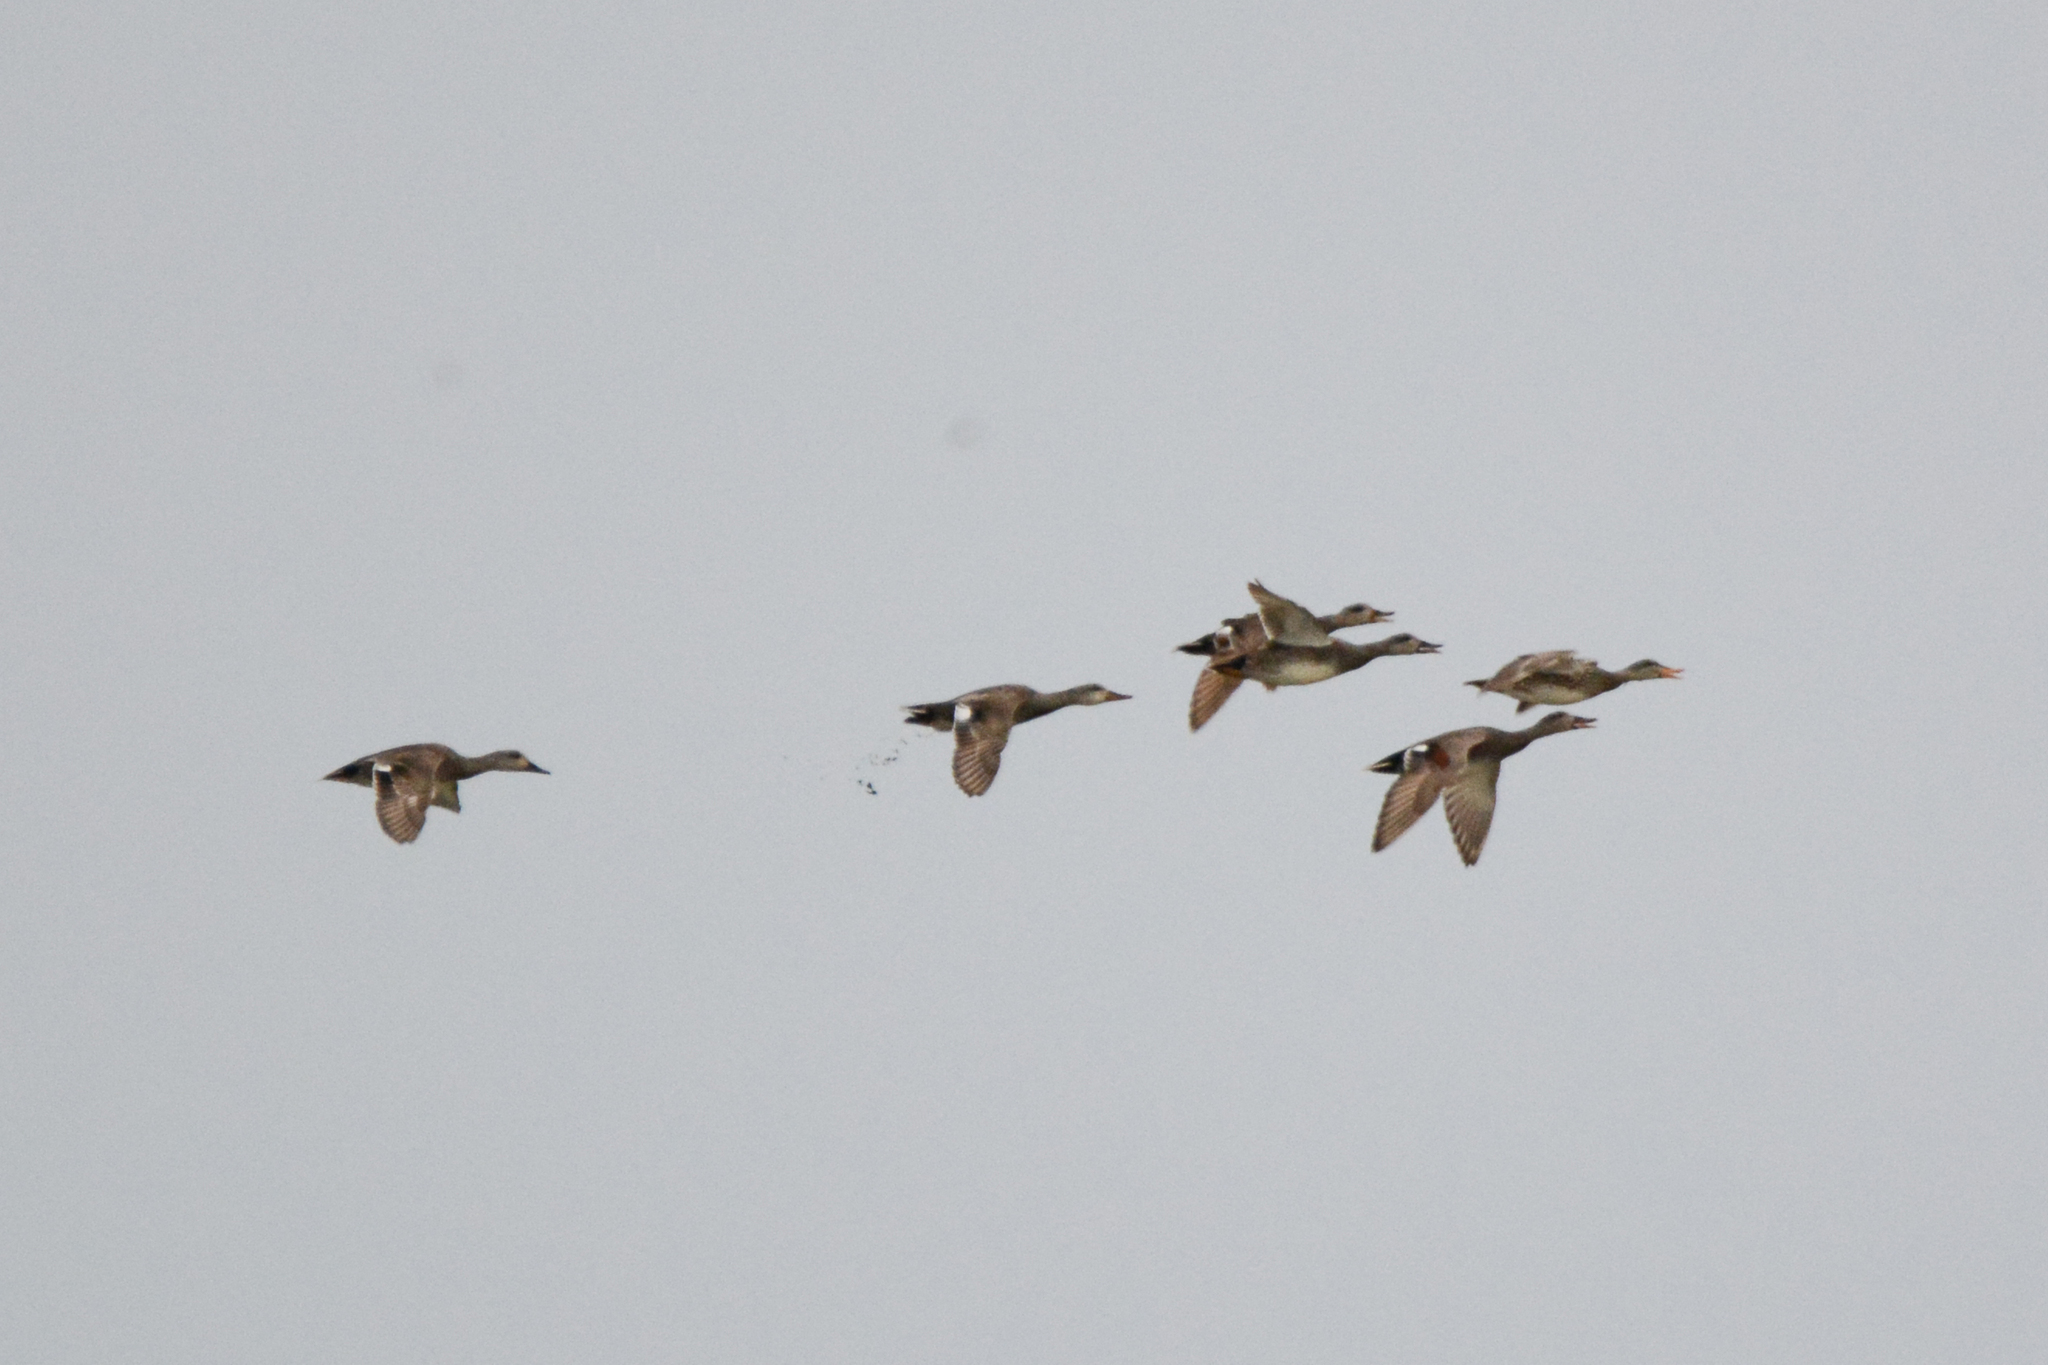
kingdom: Animalia
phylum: Chordata
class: Aves
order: Anseriformes
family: Anatidae
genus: Mareca
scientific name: Mareca strepera
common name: Gadwall
